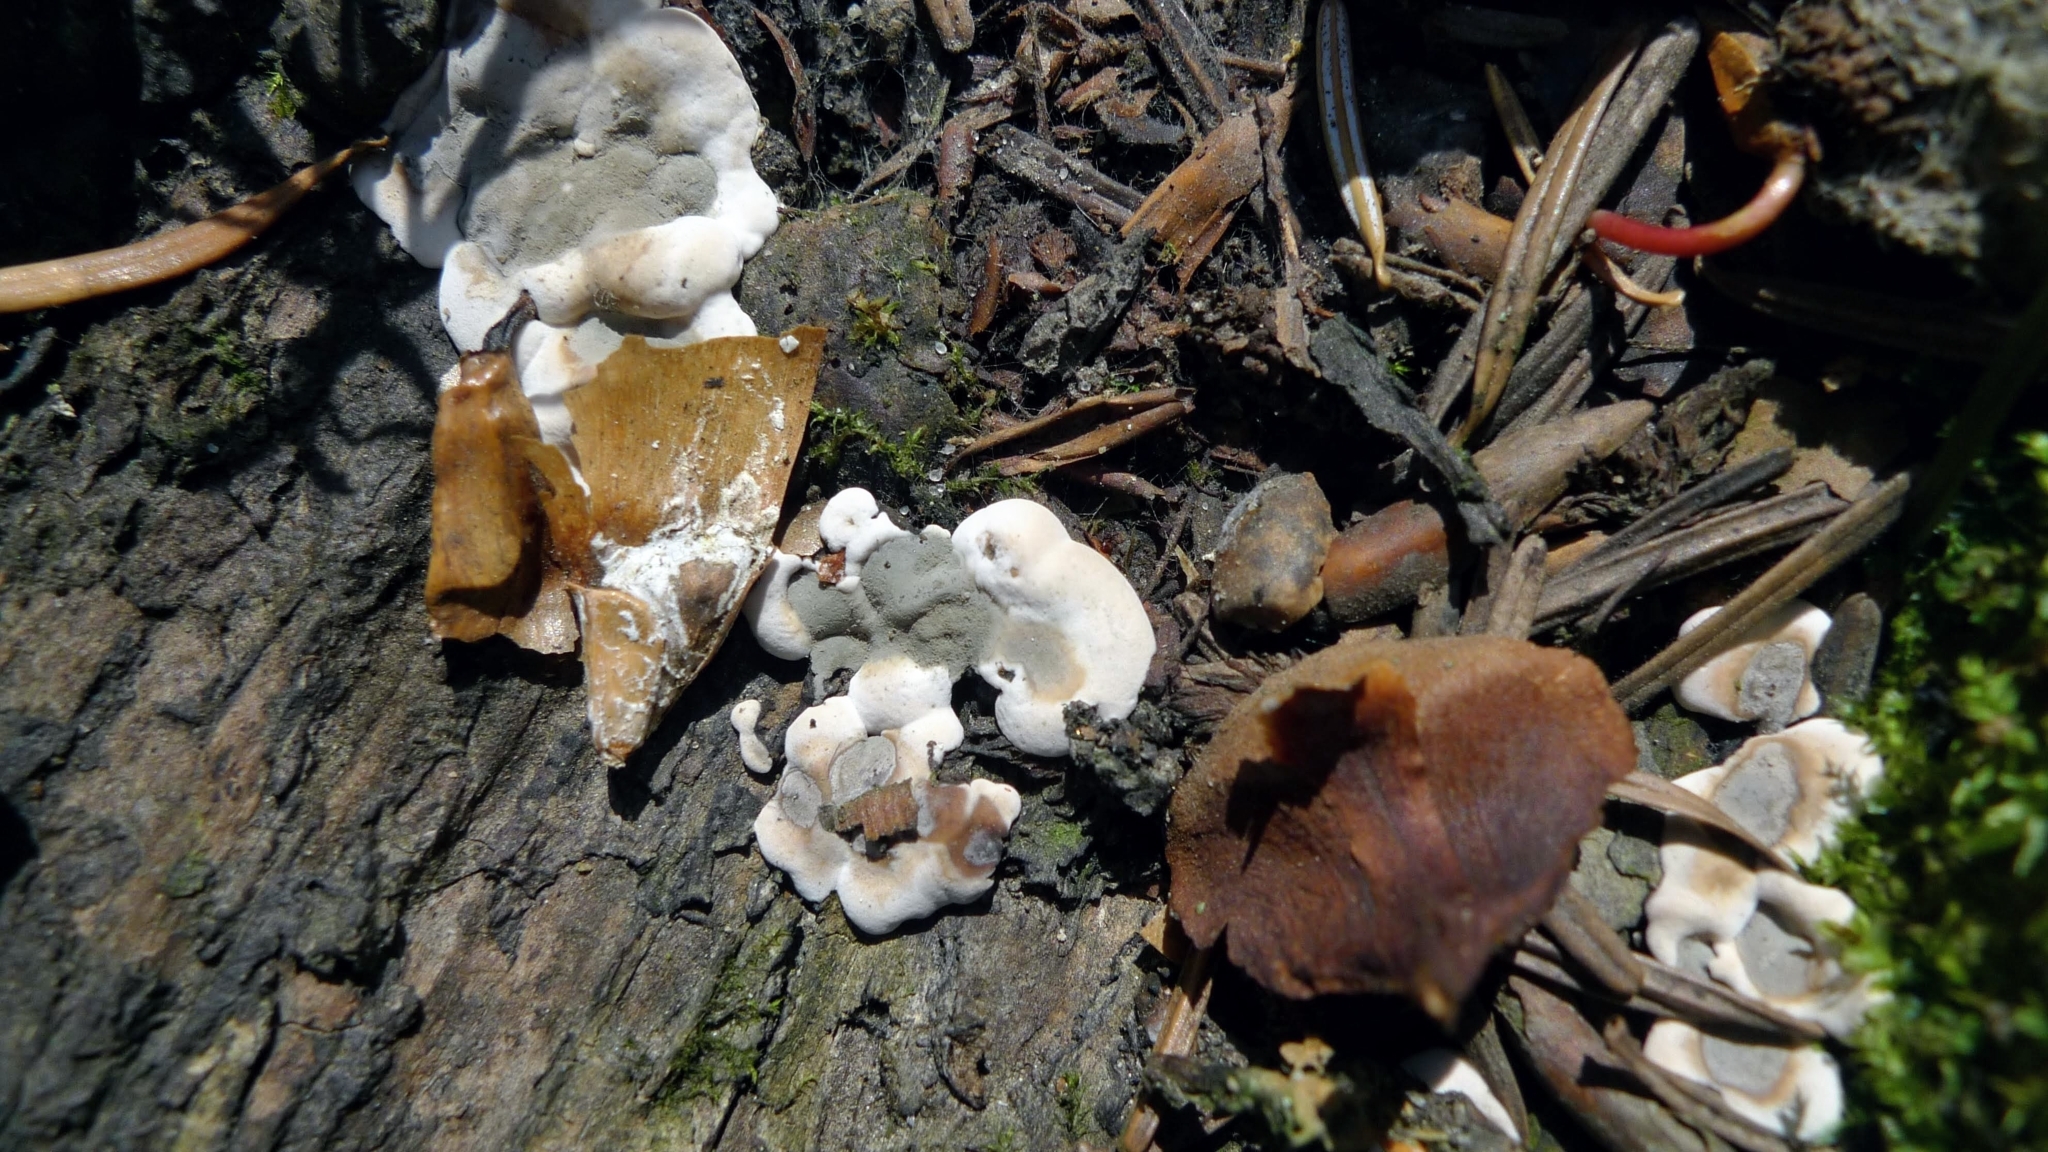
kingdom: Fungi
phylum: Ascomycota
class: Sordariomycetes
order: Xylariales
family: Xylariaceae
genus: Kretzschmaria
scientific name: Kretzschmaria deusta
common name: Brittle cinder
